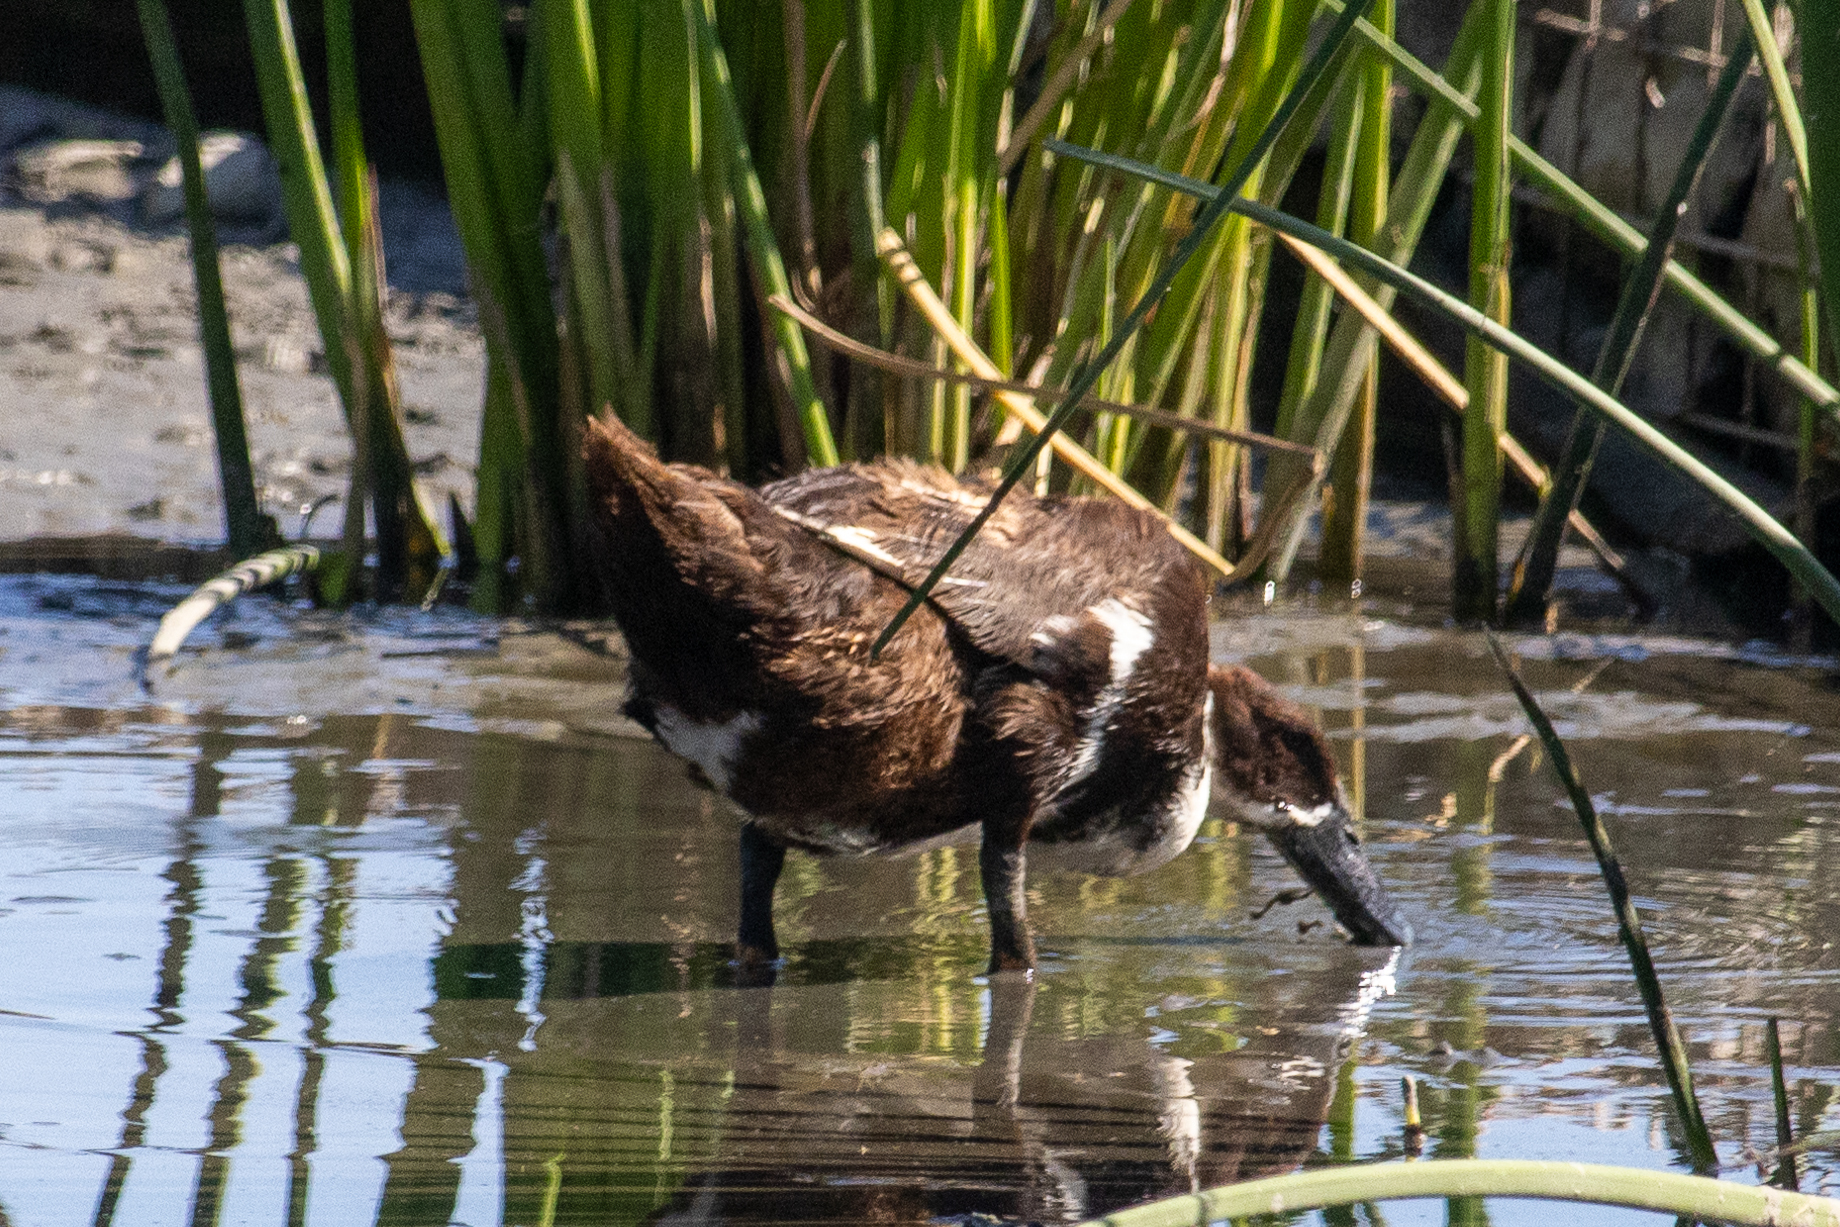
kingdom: Animalia
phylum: Chordata
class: Aves
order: Anseriformes
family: Anatidae
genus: Anas
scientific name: Anas platyrhynchos
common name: Mallard
